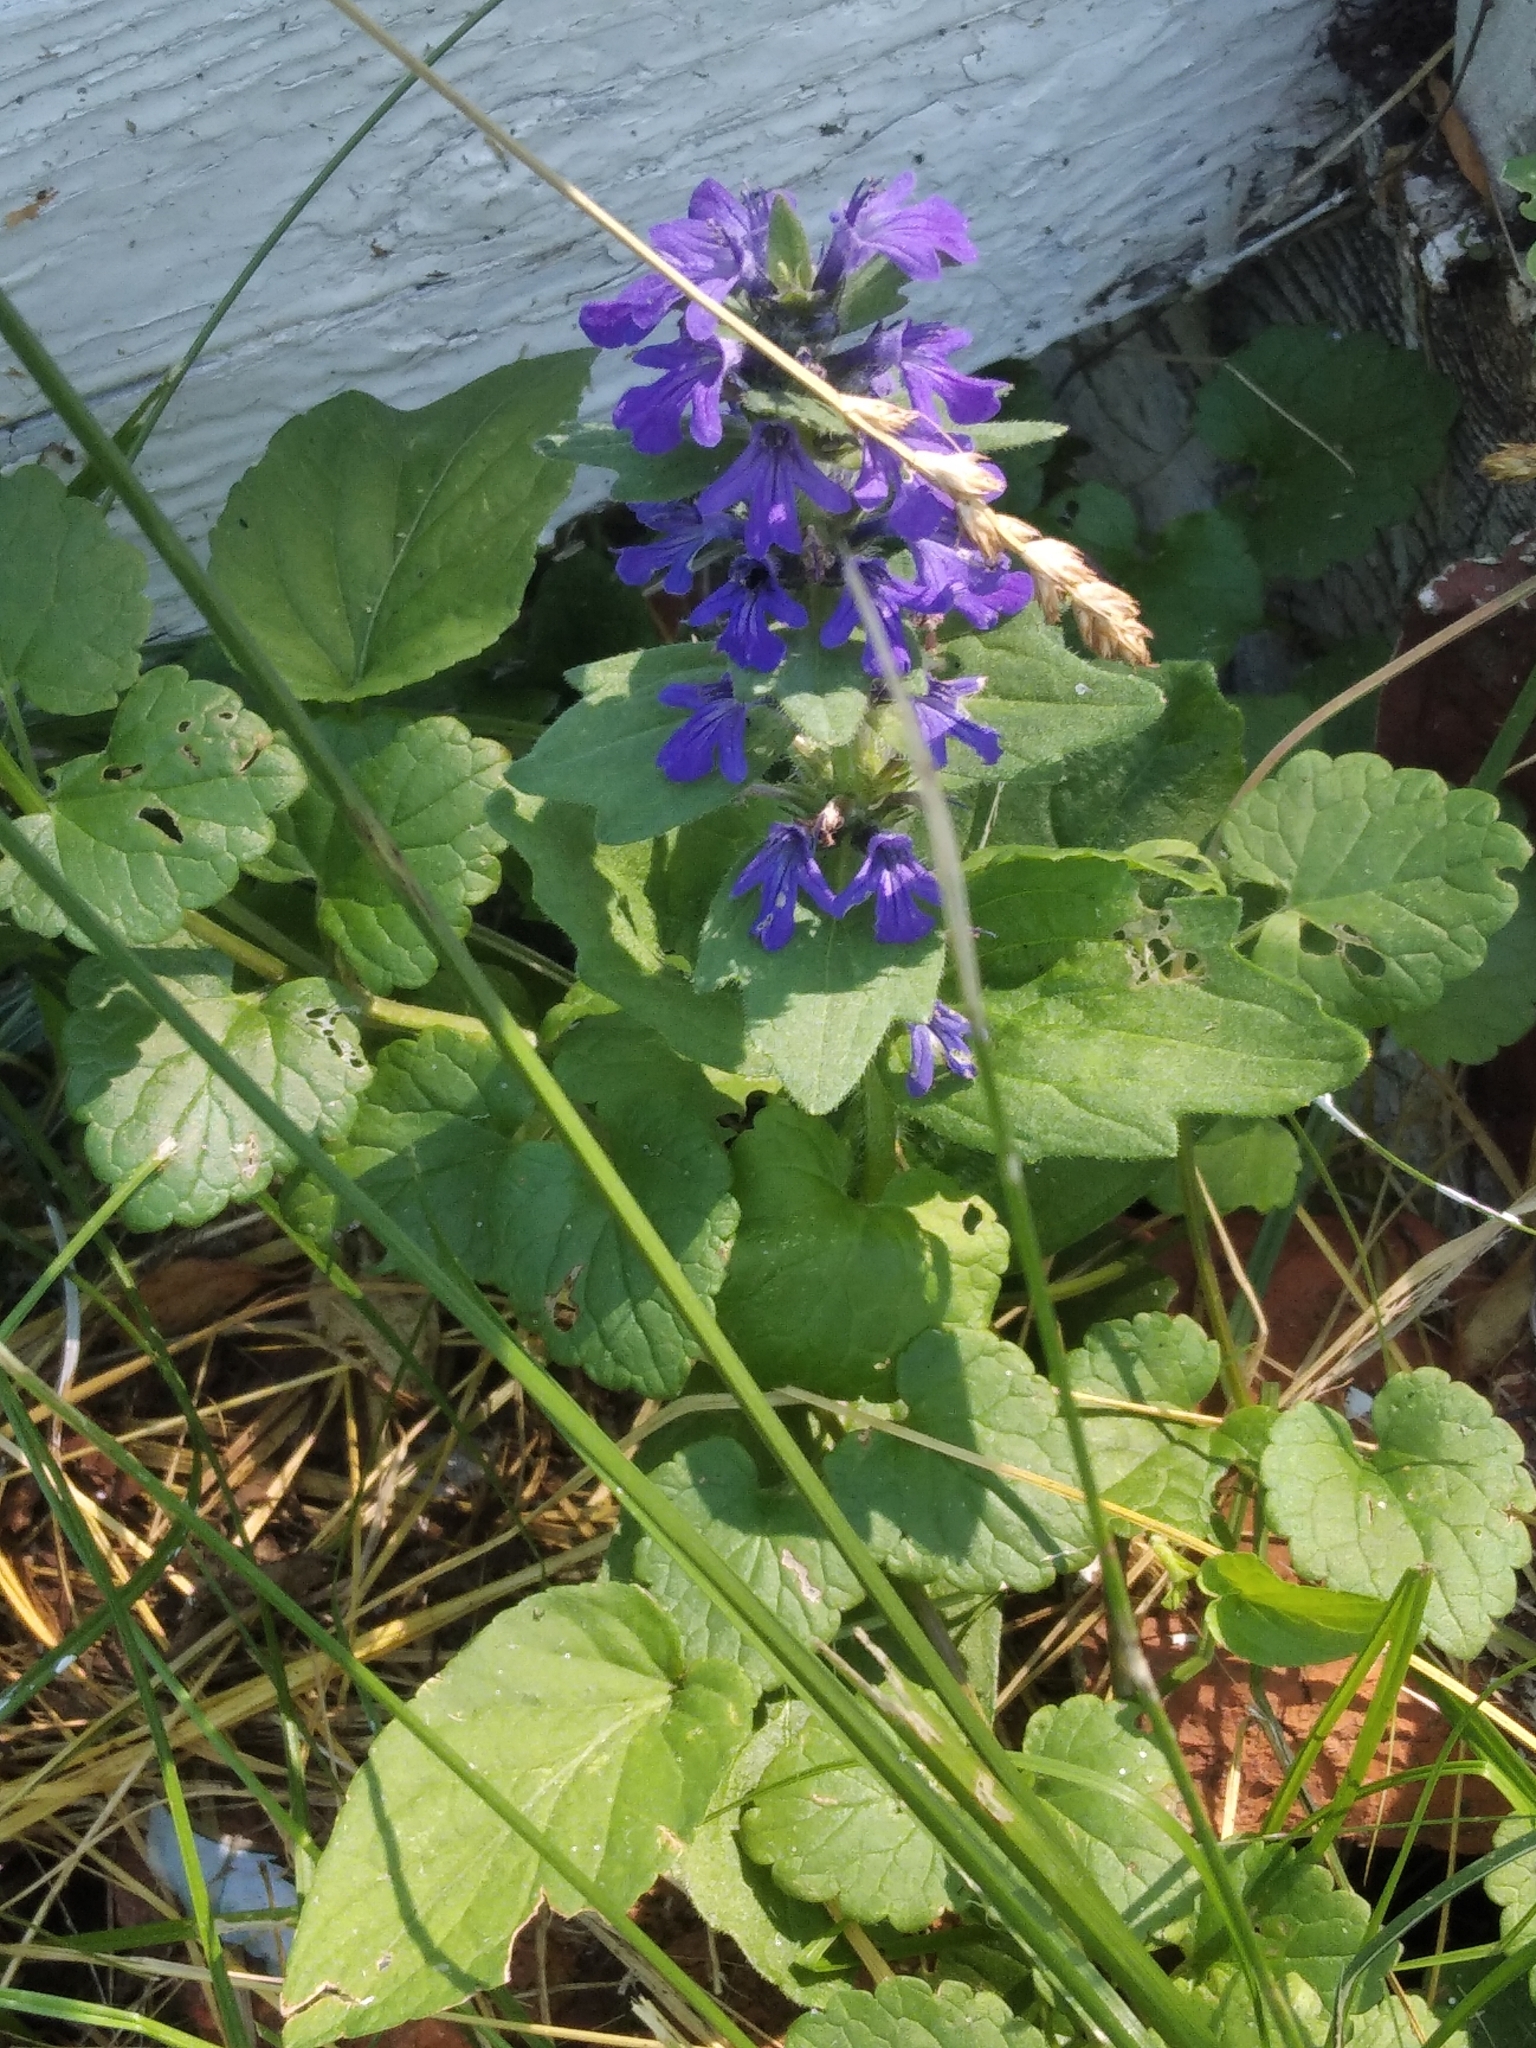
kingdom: Plantae
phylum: Tracheophyta
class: Magnoliopsida
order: Lamiales
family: Lamiaceae
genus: Ajuga
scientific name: Ajuga genevensis
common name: Blue bugle
